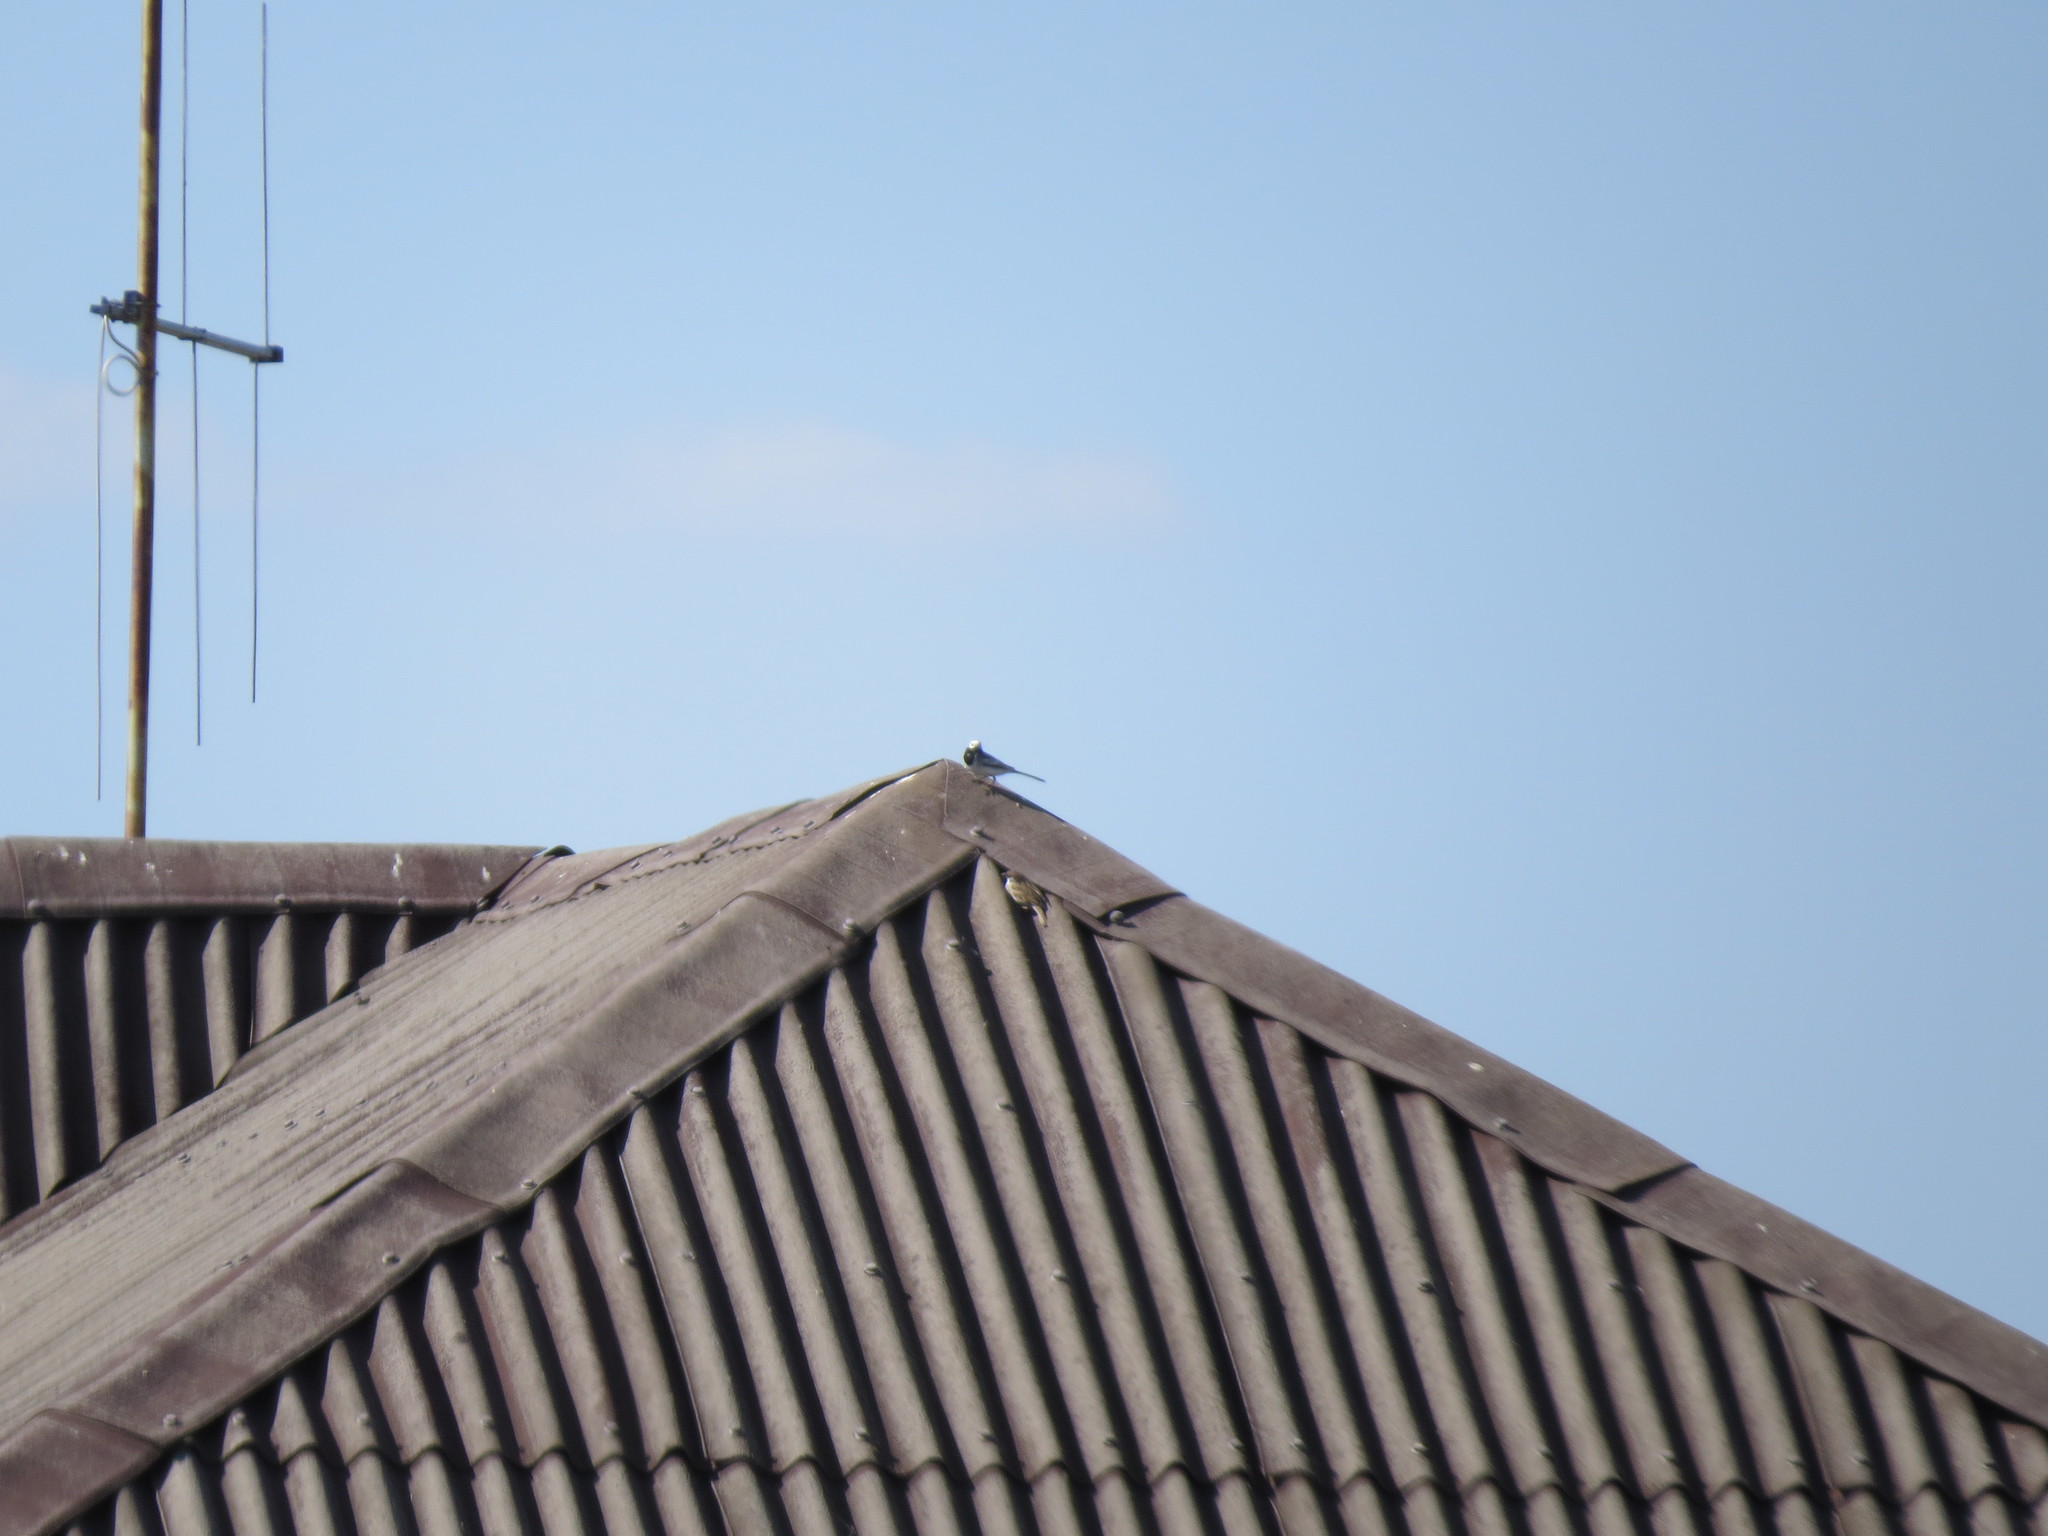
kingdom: Animalia
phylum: Chordata
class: Aves
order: Passeriformes
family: Passeridae
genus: Passer
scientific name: Passer montanus
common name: Eurasian tree sparrow
